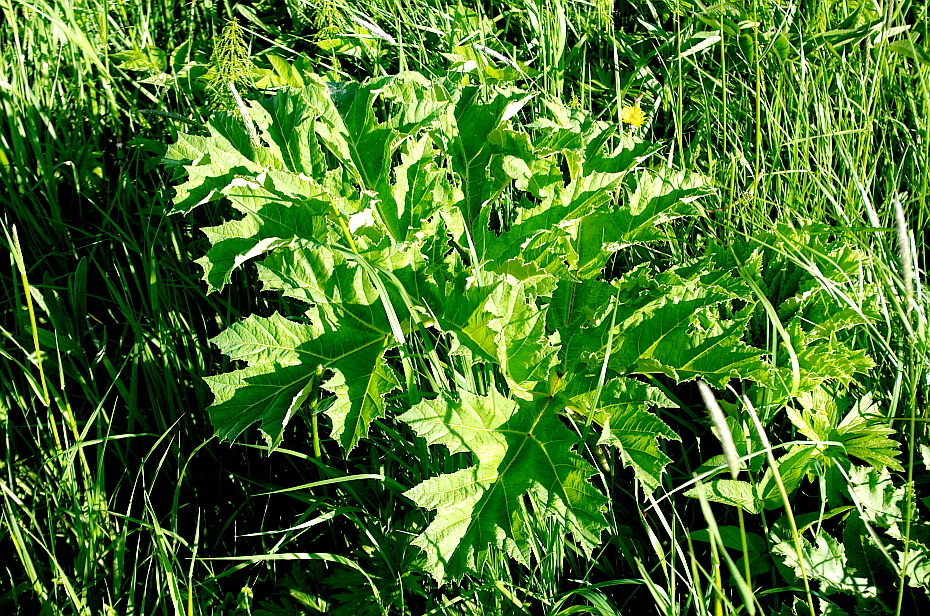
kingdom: Plantae
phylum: Tracheophyta
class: Magnoliopsida
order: Apiales
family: Apiaceae
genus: Heracleum
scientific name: Heracleum sosnowskyi
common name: Sosnowsky's hogweed
